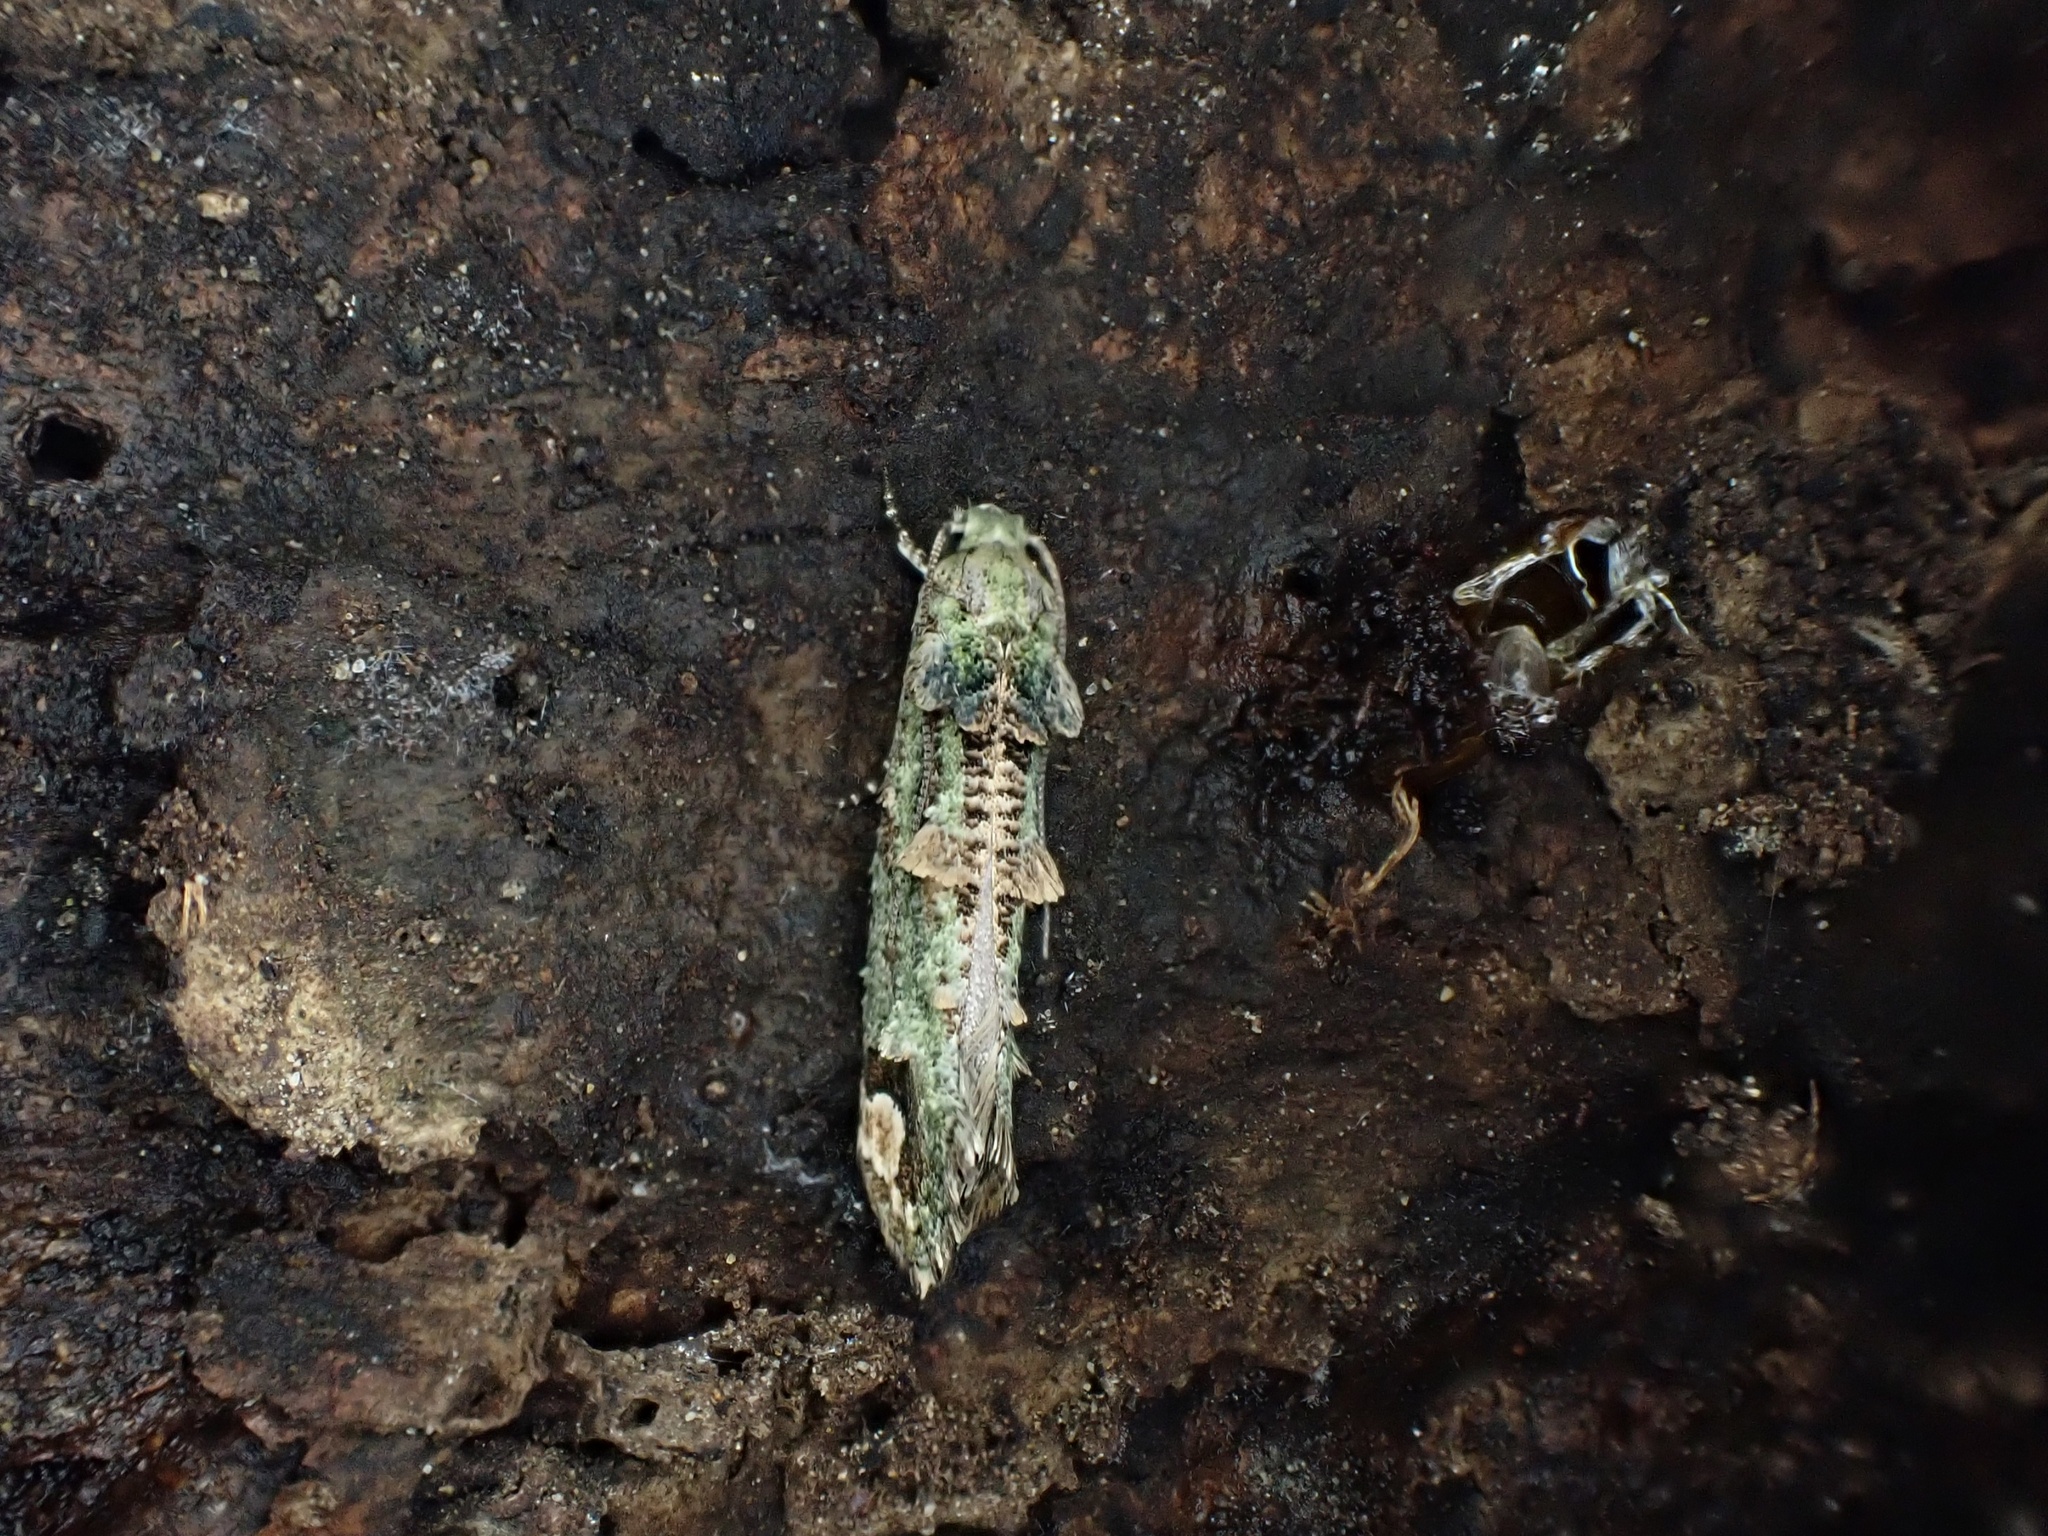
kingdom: Animalia
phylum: Arthropoda
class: Insecta
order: Lepidoptera
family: Tineidae
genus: Lysiphragma
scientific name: Lysiphragma mixochlora
